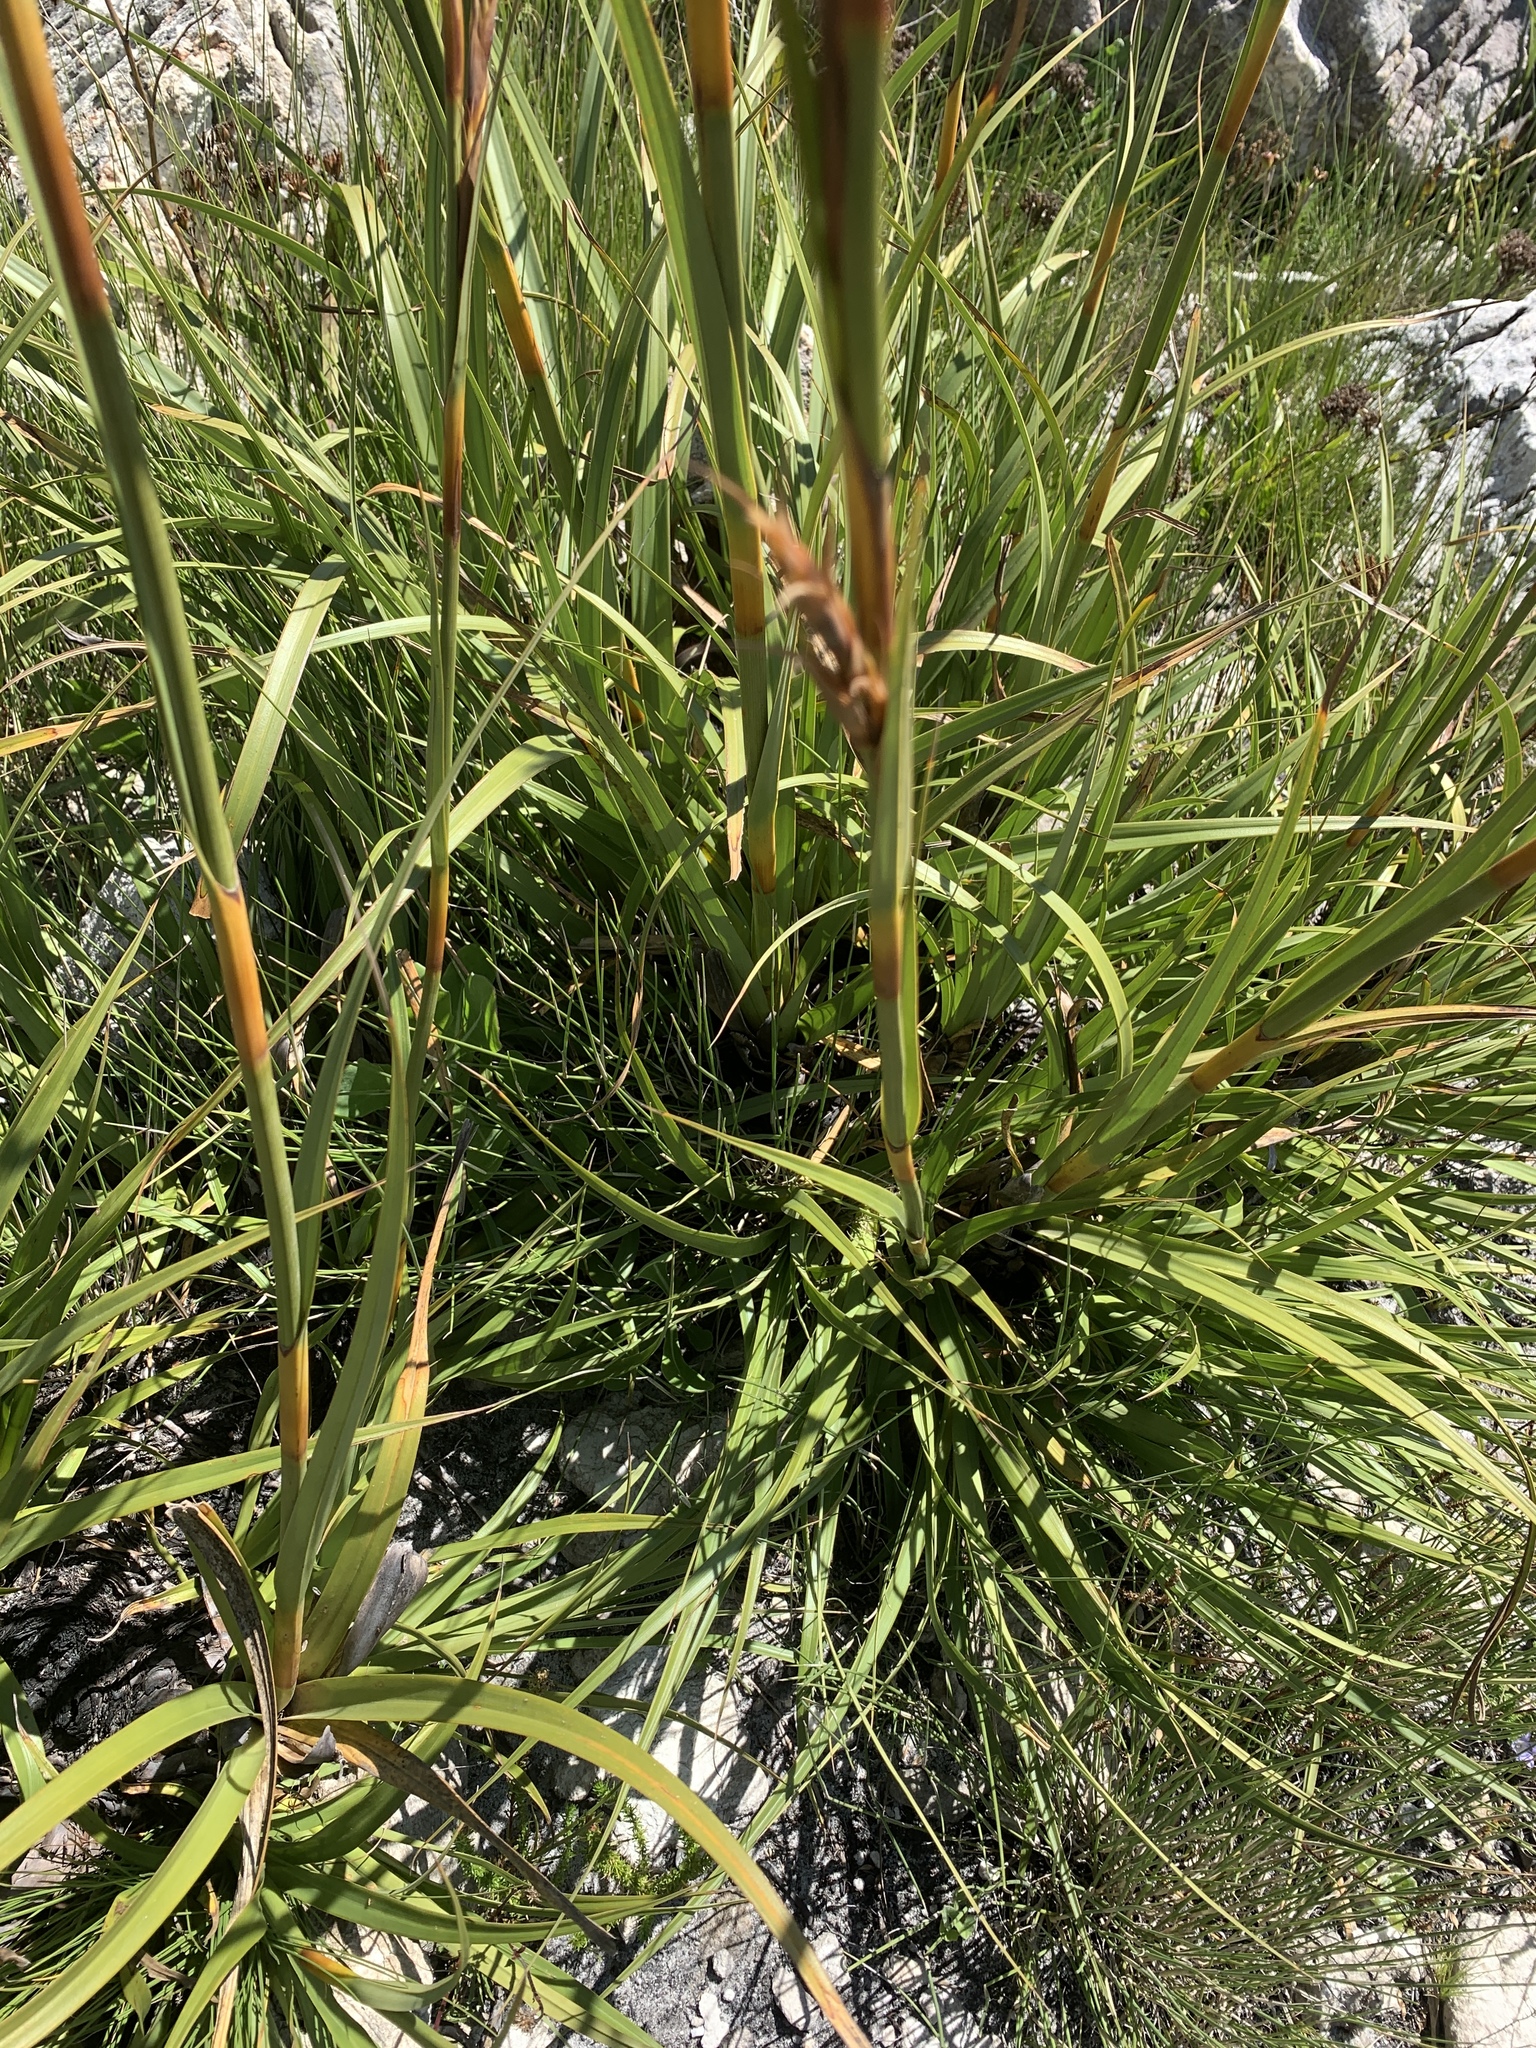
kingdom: Plantae
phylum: Tracheophyta
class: Liliopsida
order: Poales
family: Cyperaceae
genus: Tetraria
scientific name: Tetraria thermalis
